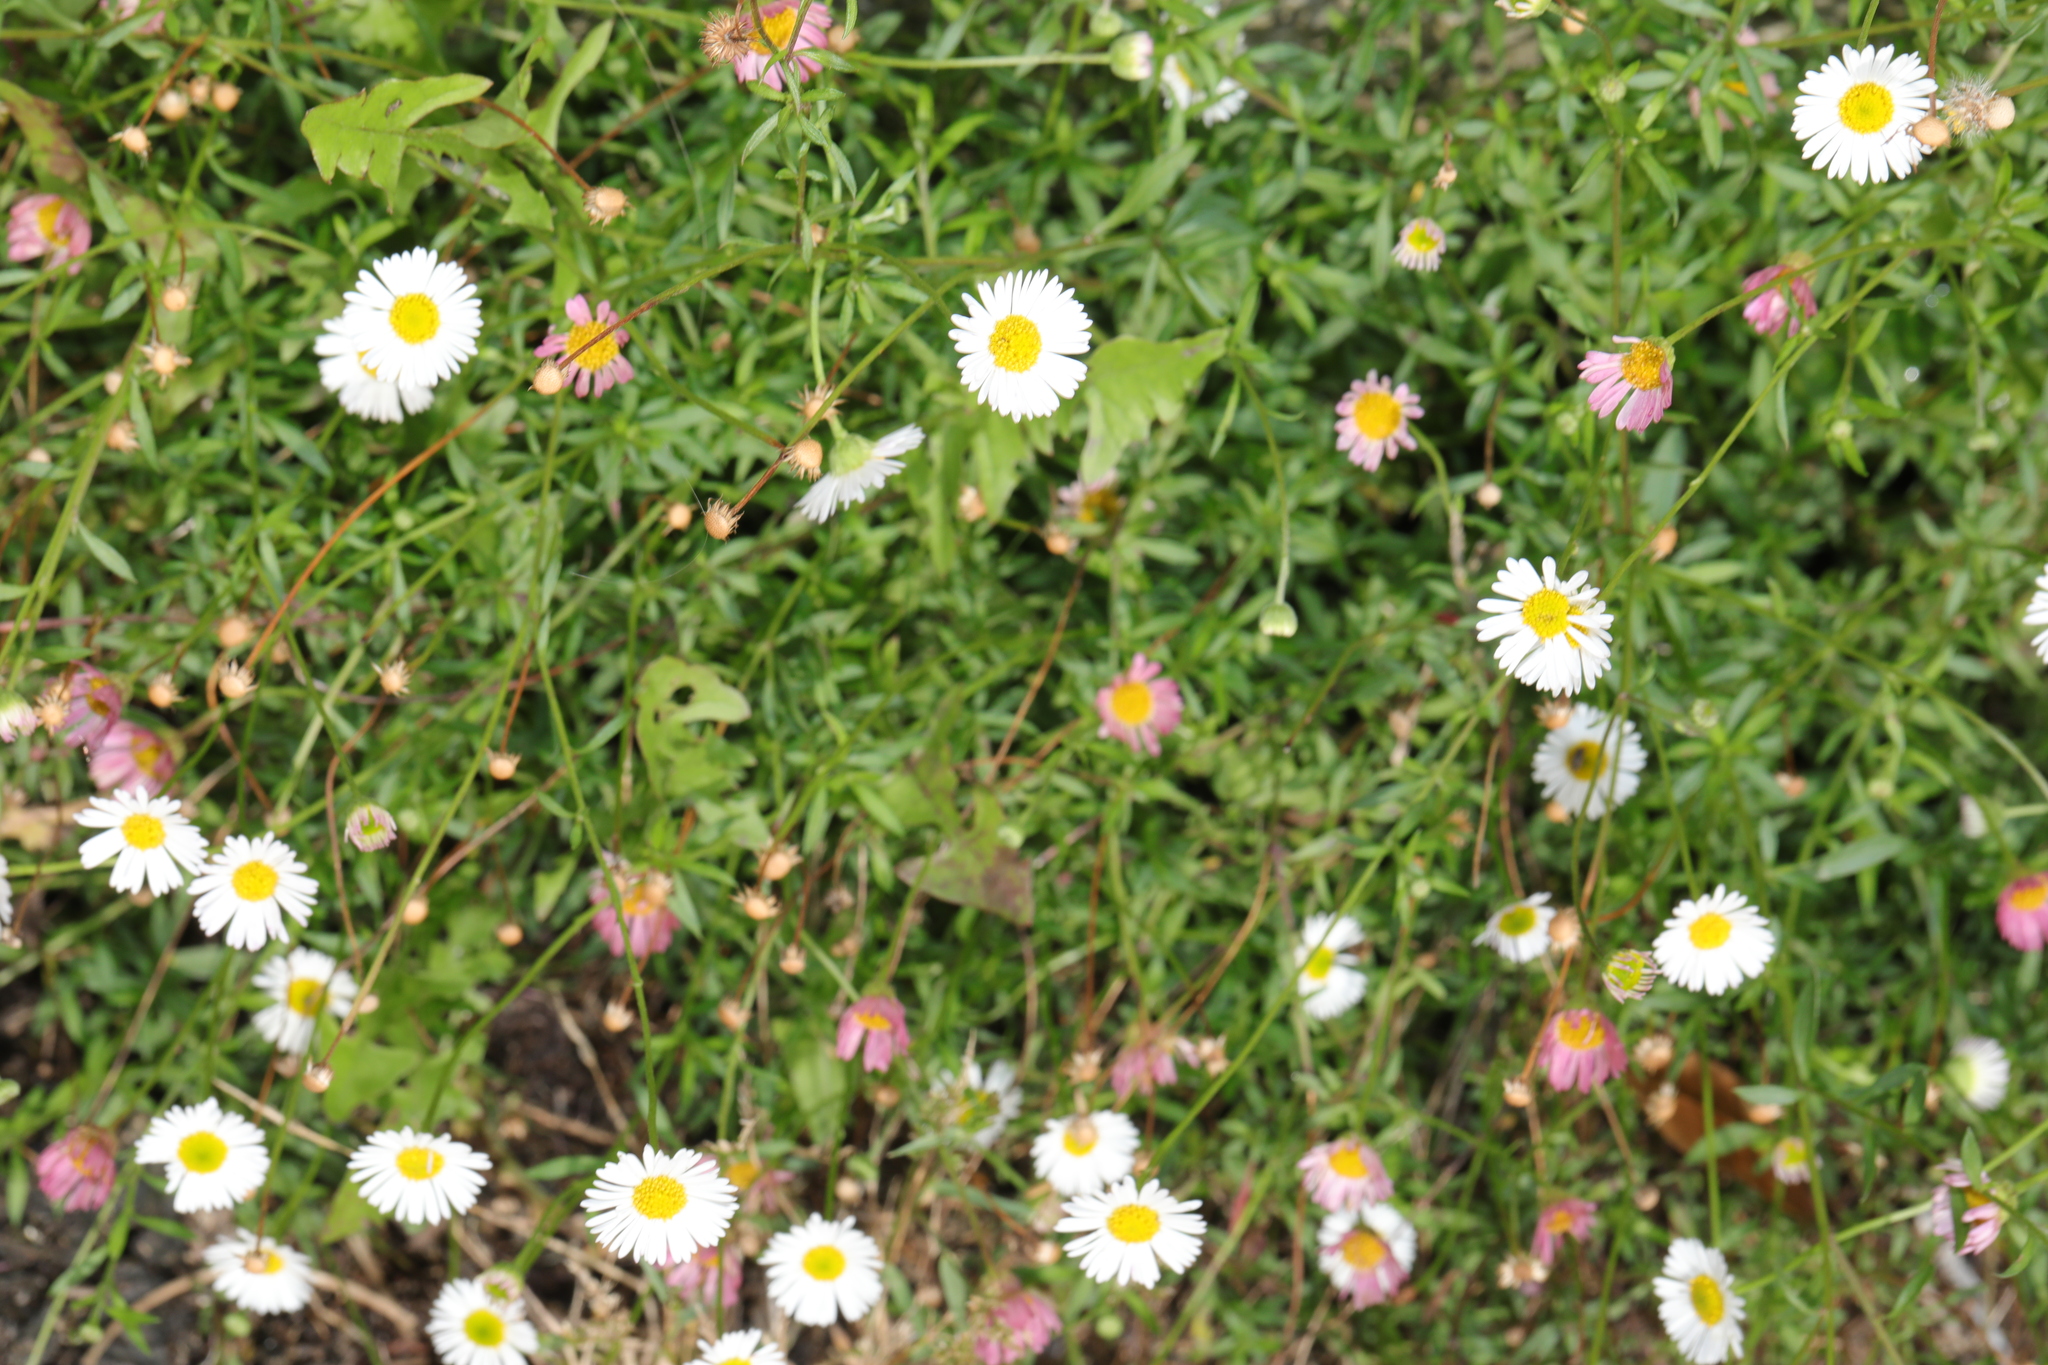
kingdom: Plantae
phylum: Tracheophyta
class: Magnoliopsida
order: Asterales
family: Asteraceae
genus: Erigeron
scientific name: Erigeron karvinskianus
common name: Mexican fleabane
